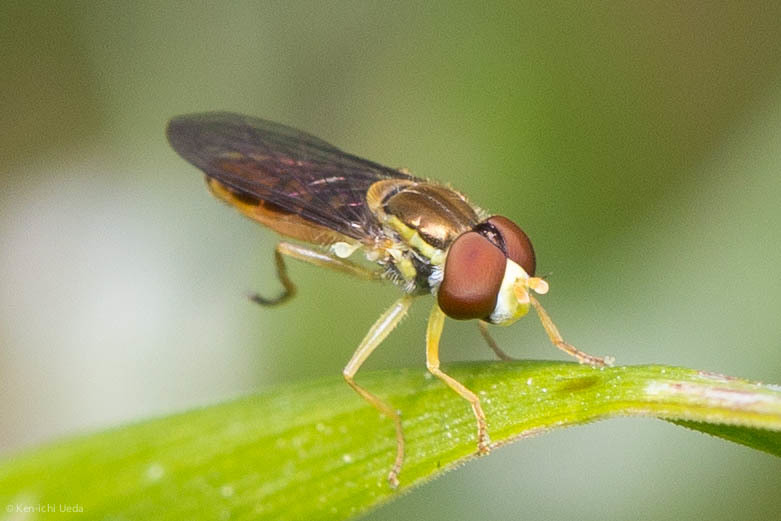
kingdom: Animalia
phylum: Arthropoda
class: Insecta
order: Diptera
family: Syrphidae
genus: Toxomerus
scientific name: Toxomerus marginatus
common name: Syrphid fly
